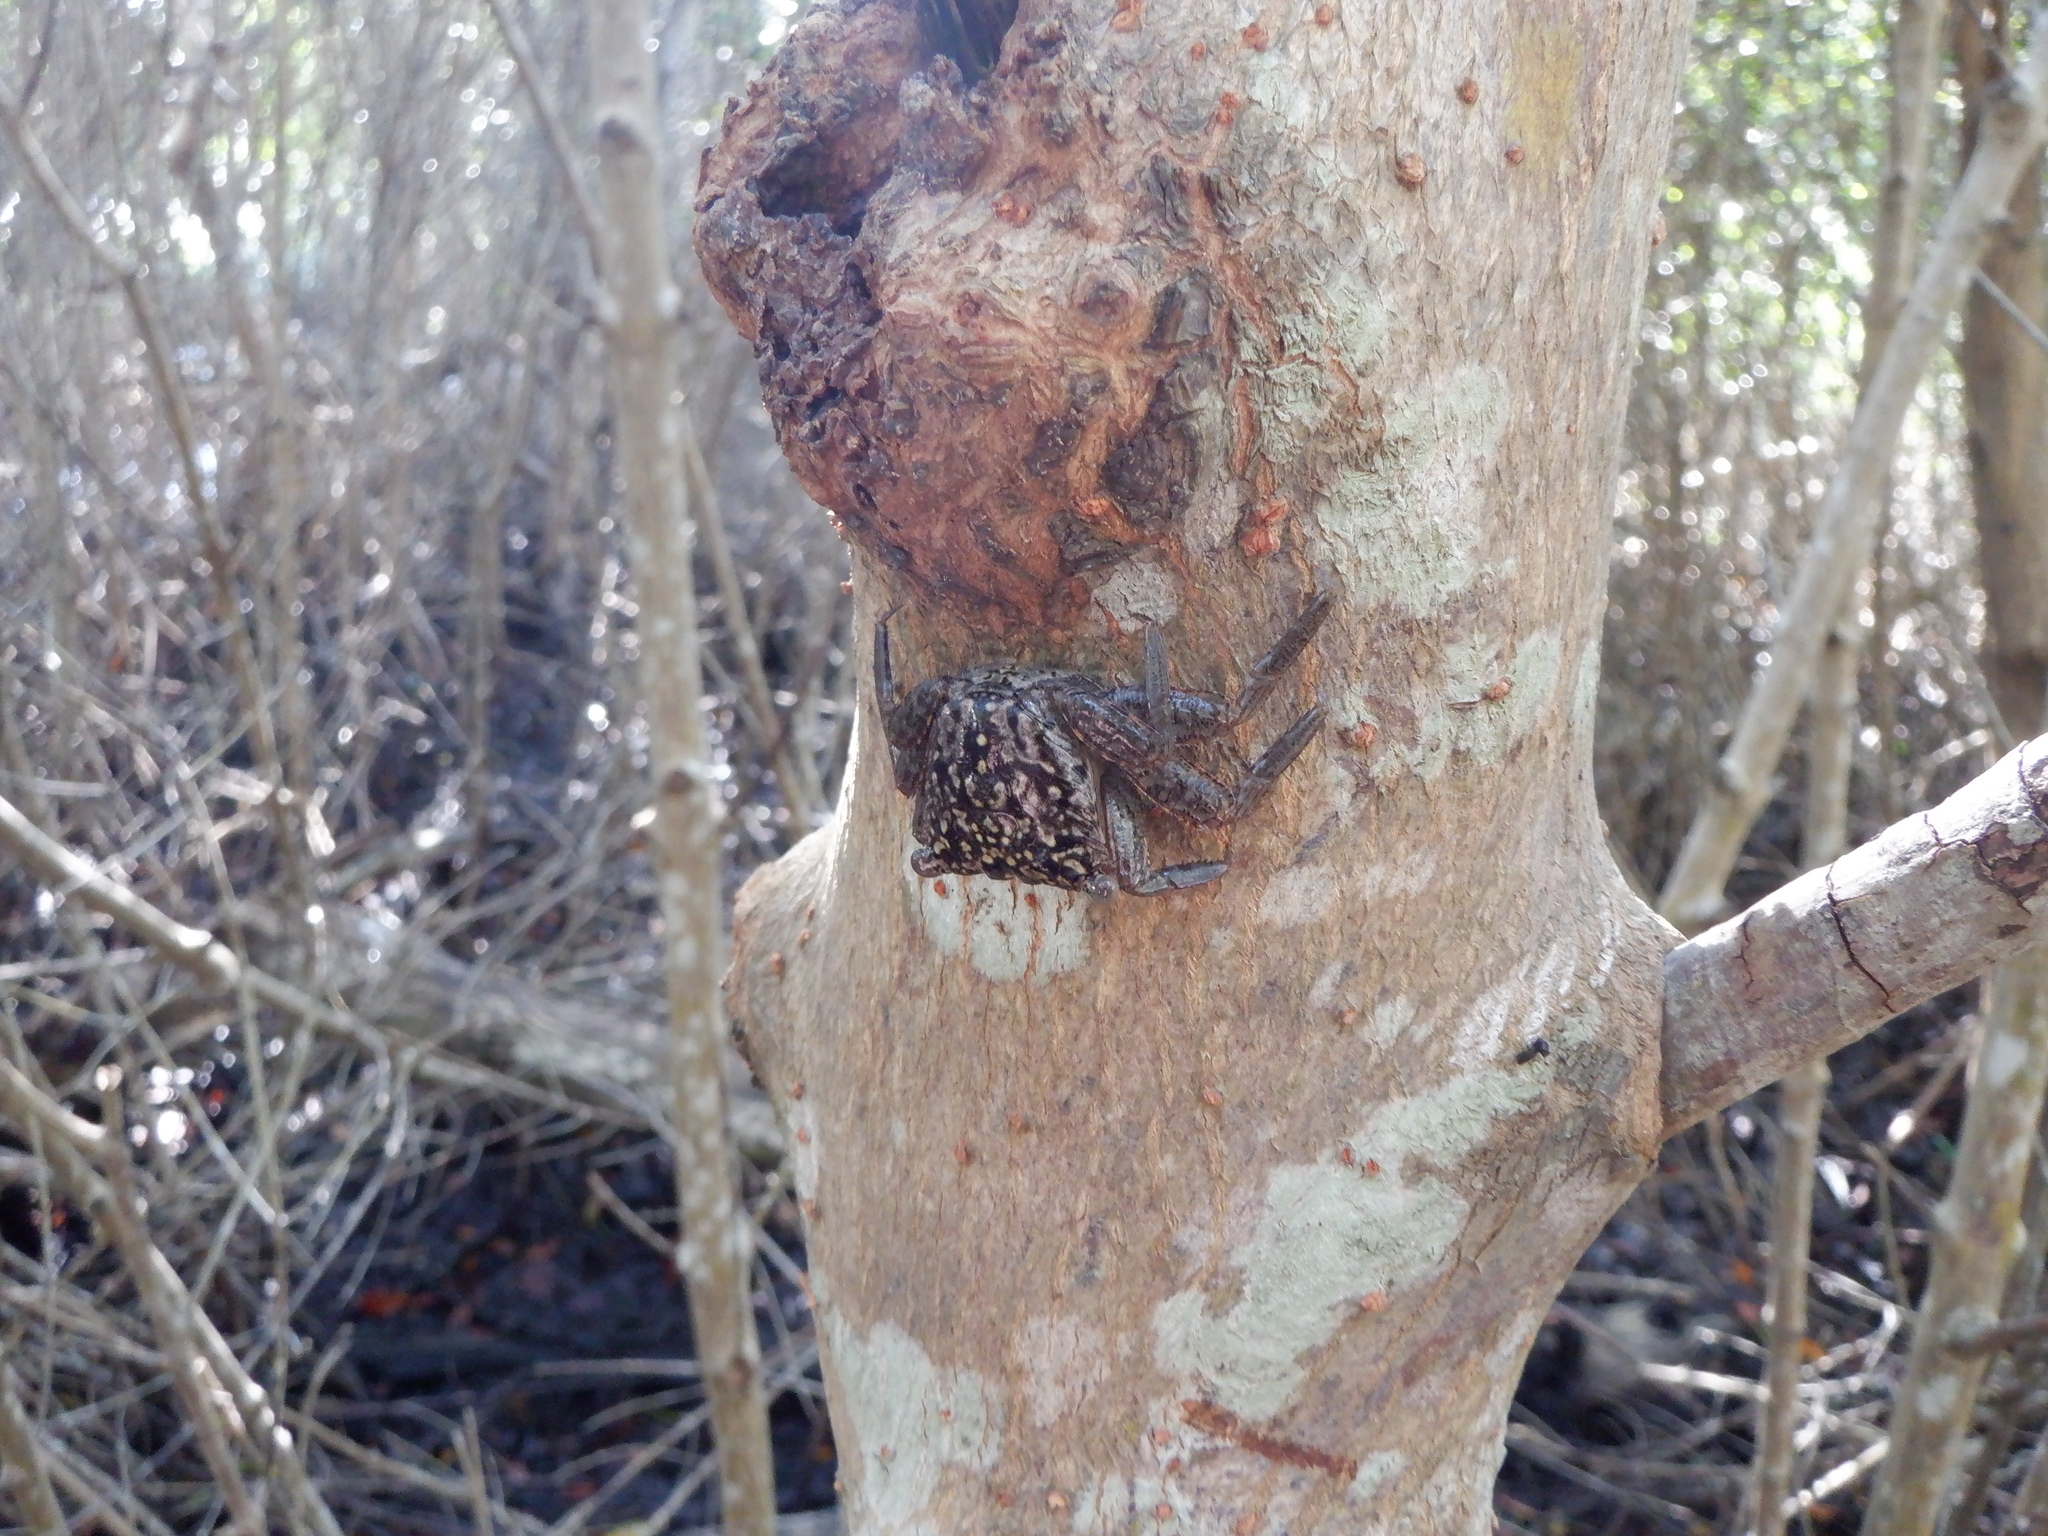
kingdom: Animalia
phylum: Arthropoda
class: Malacostraca
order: Decapoda
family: Sesarmidae
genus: Aratus
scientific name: Aratus pisonii
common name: Mangrove crab
